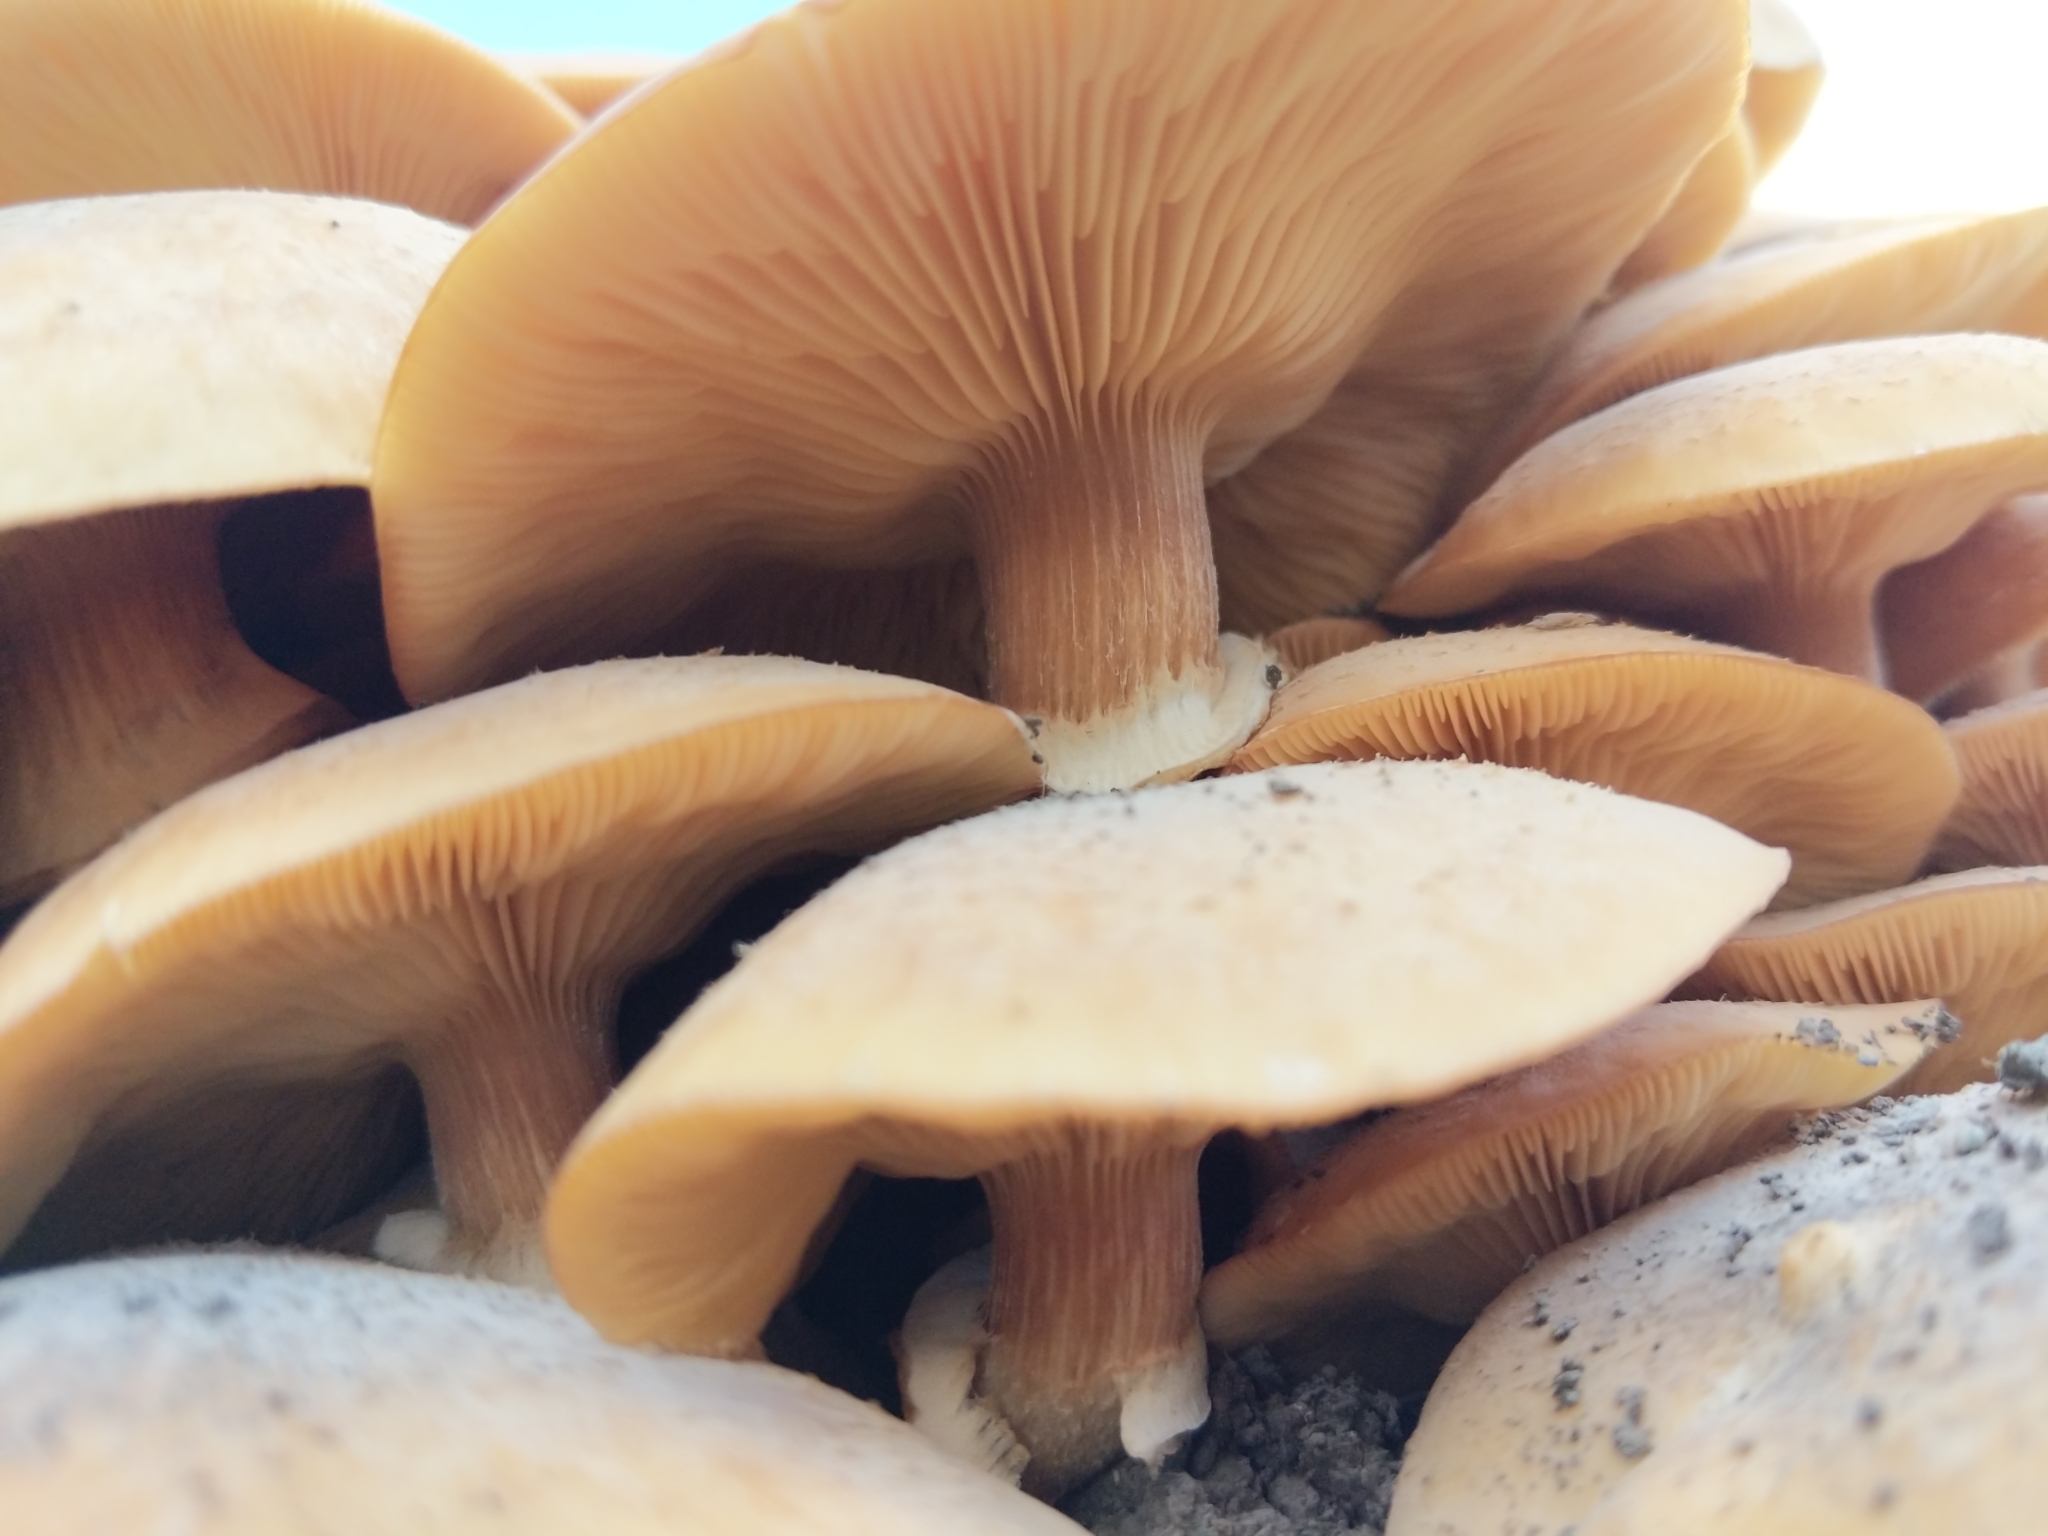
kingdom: Fungi
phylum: Basidiomycota
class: Agaricomycetes
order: Agaricales
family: Physalacriaceae
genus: Armillaria
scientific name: Armillaria mellea
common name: Honey fungus
